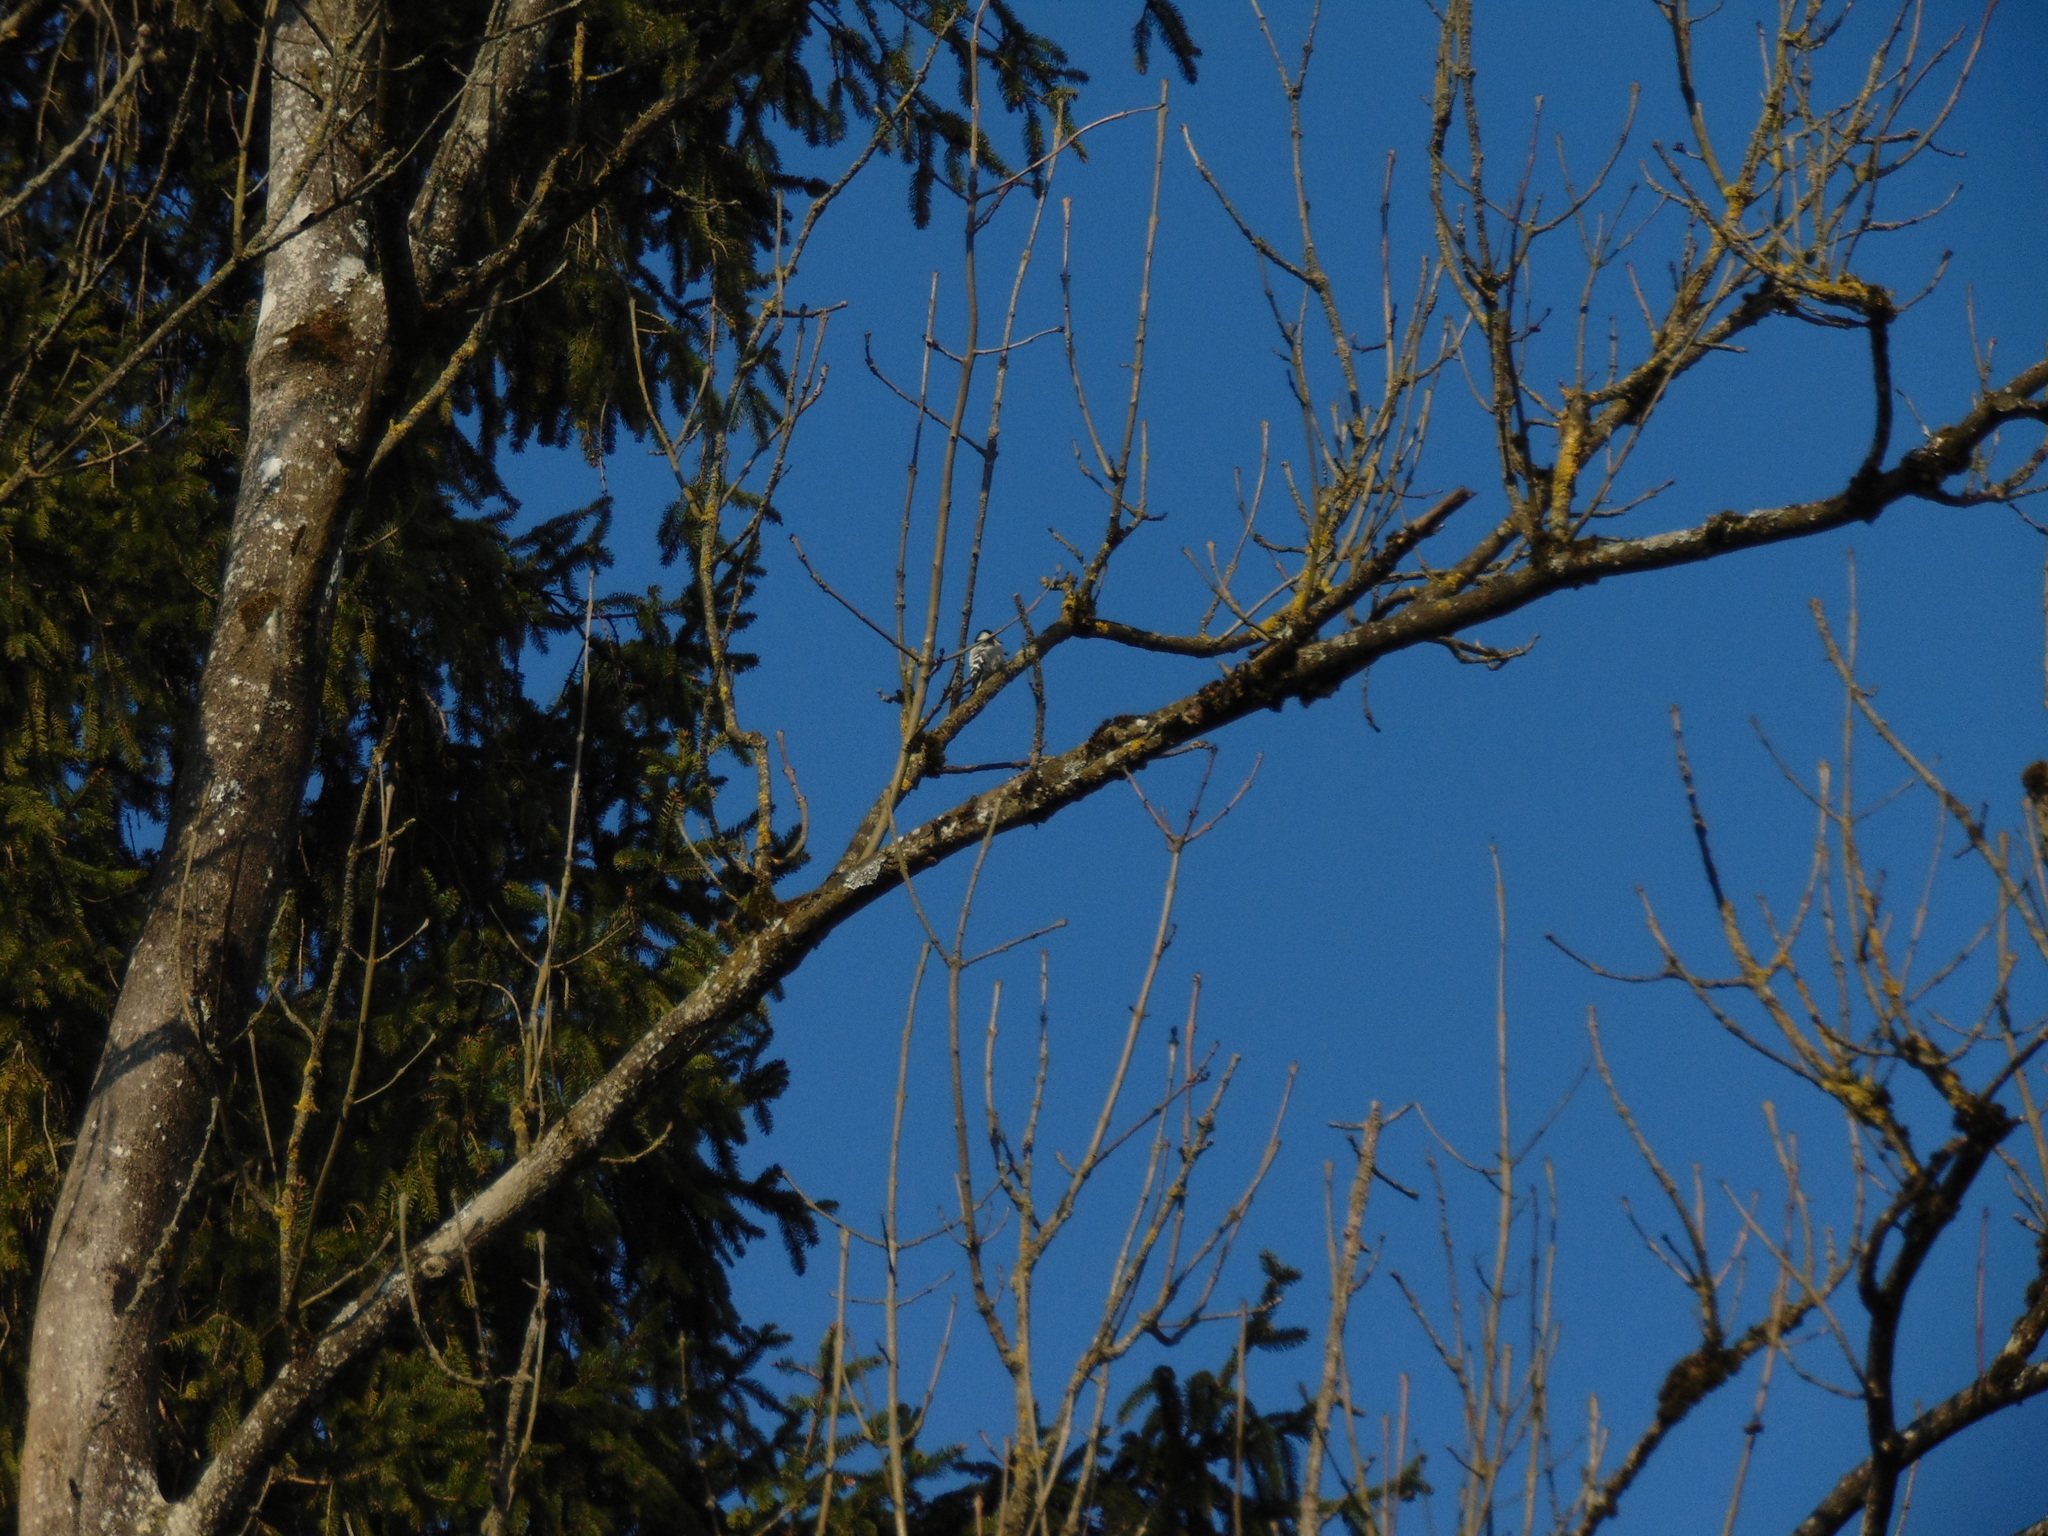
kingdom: Animalia
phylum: Chordata
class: Aves
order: Piciformes
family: Picidae
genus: Dryobates
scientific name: Dryobates minor
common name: Lesser spotted woodpecker
